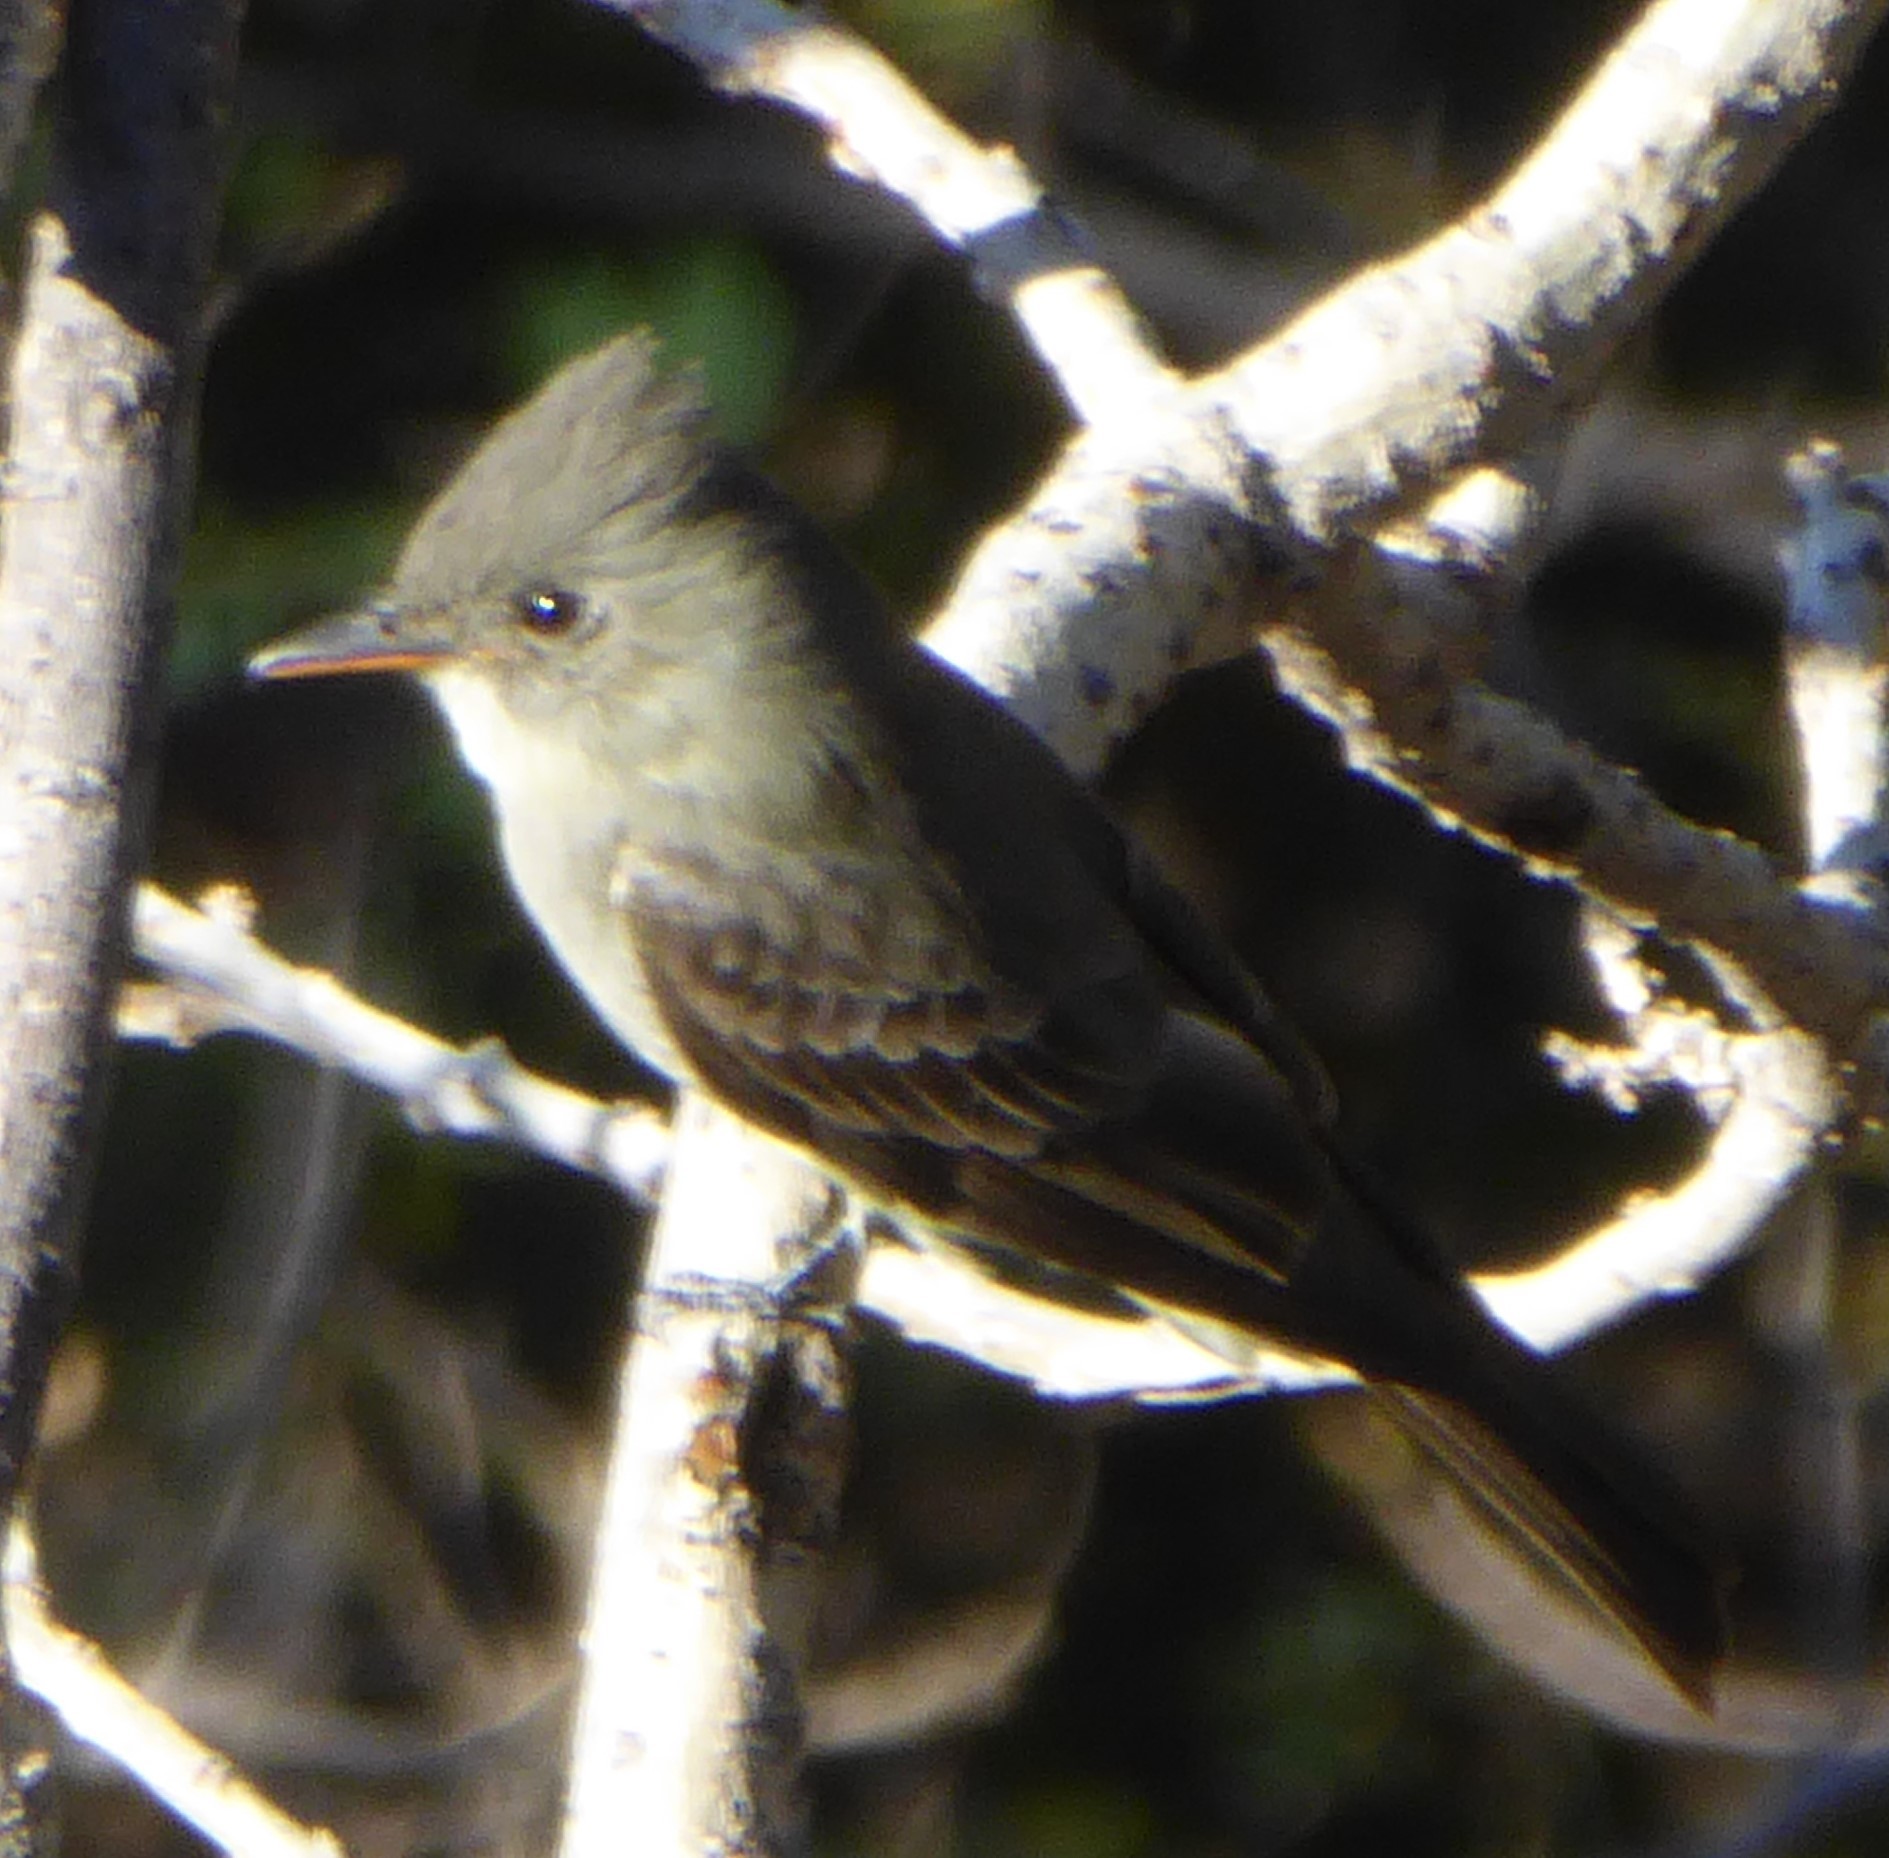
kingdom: Animalia
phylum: Chordata
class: Aves
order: Passeriformes
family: Tyrannidae
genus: Contopus
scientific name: Contopus pertinax
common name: Greater pewee
